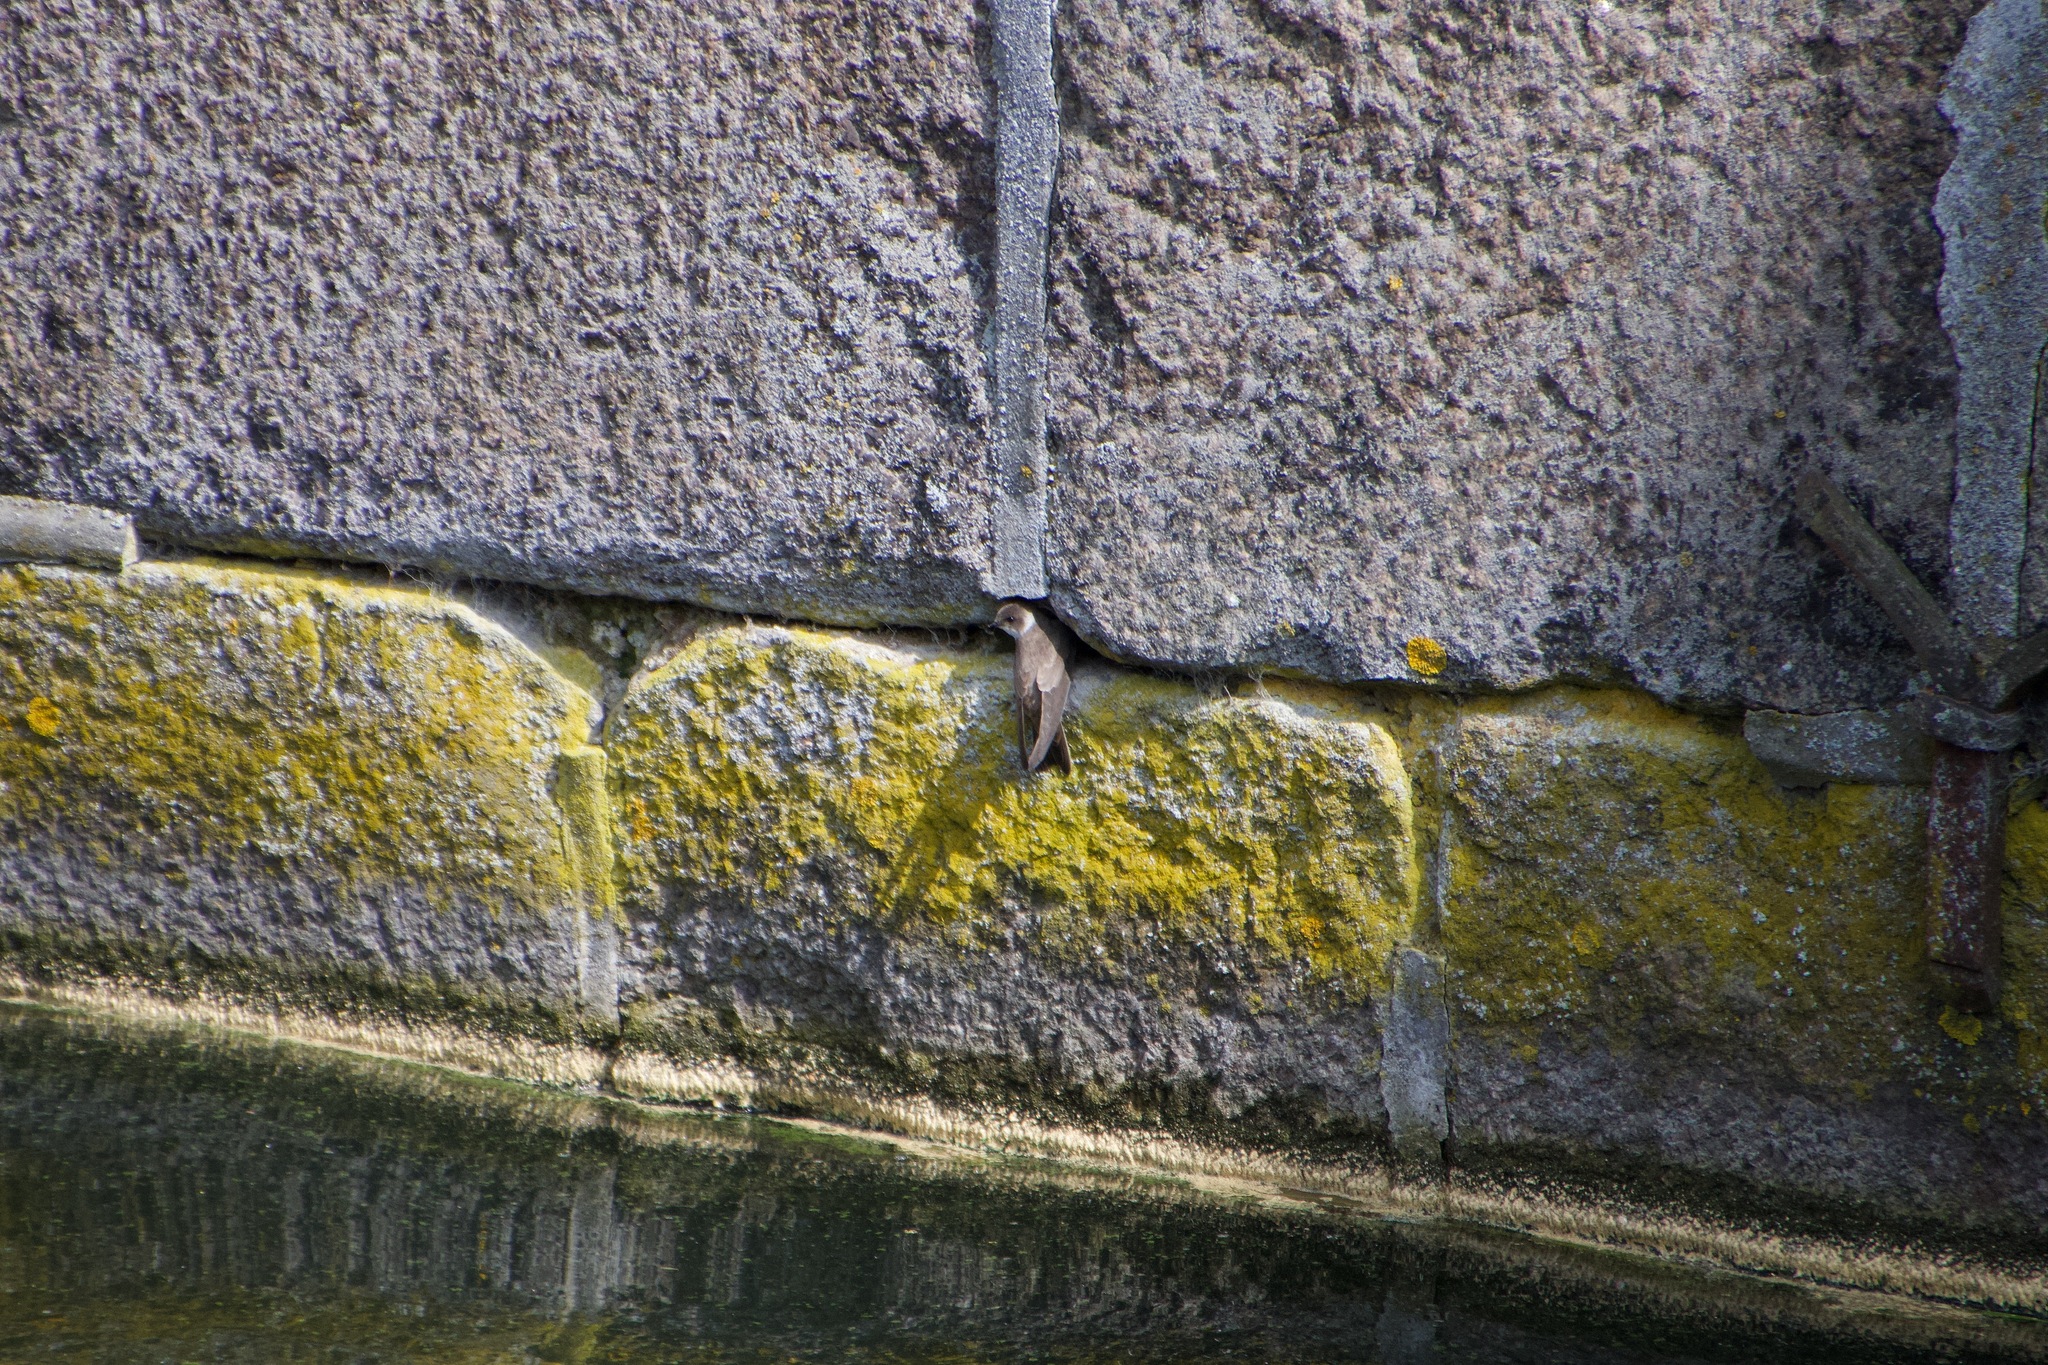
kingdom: Animalia
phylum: Chordata
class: Aves
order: Passeriformes
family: Hirundinidae
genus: Riparia
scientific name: Riparia riparia
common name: Sand martin
